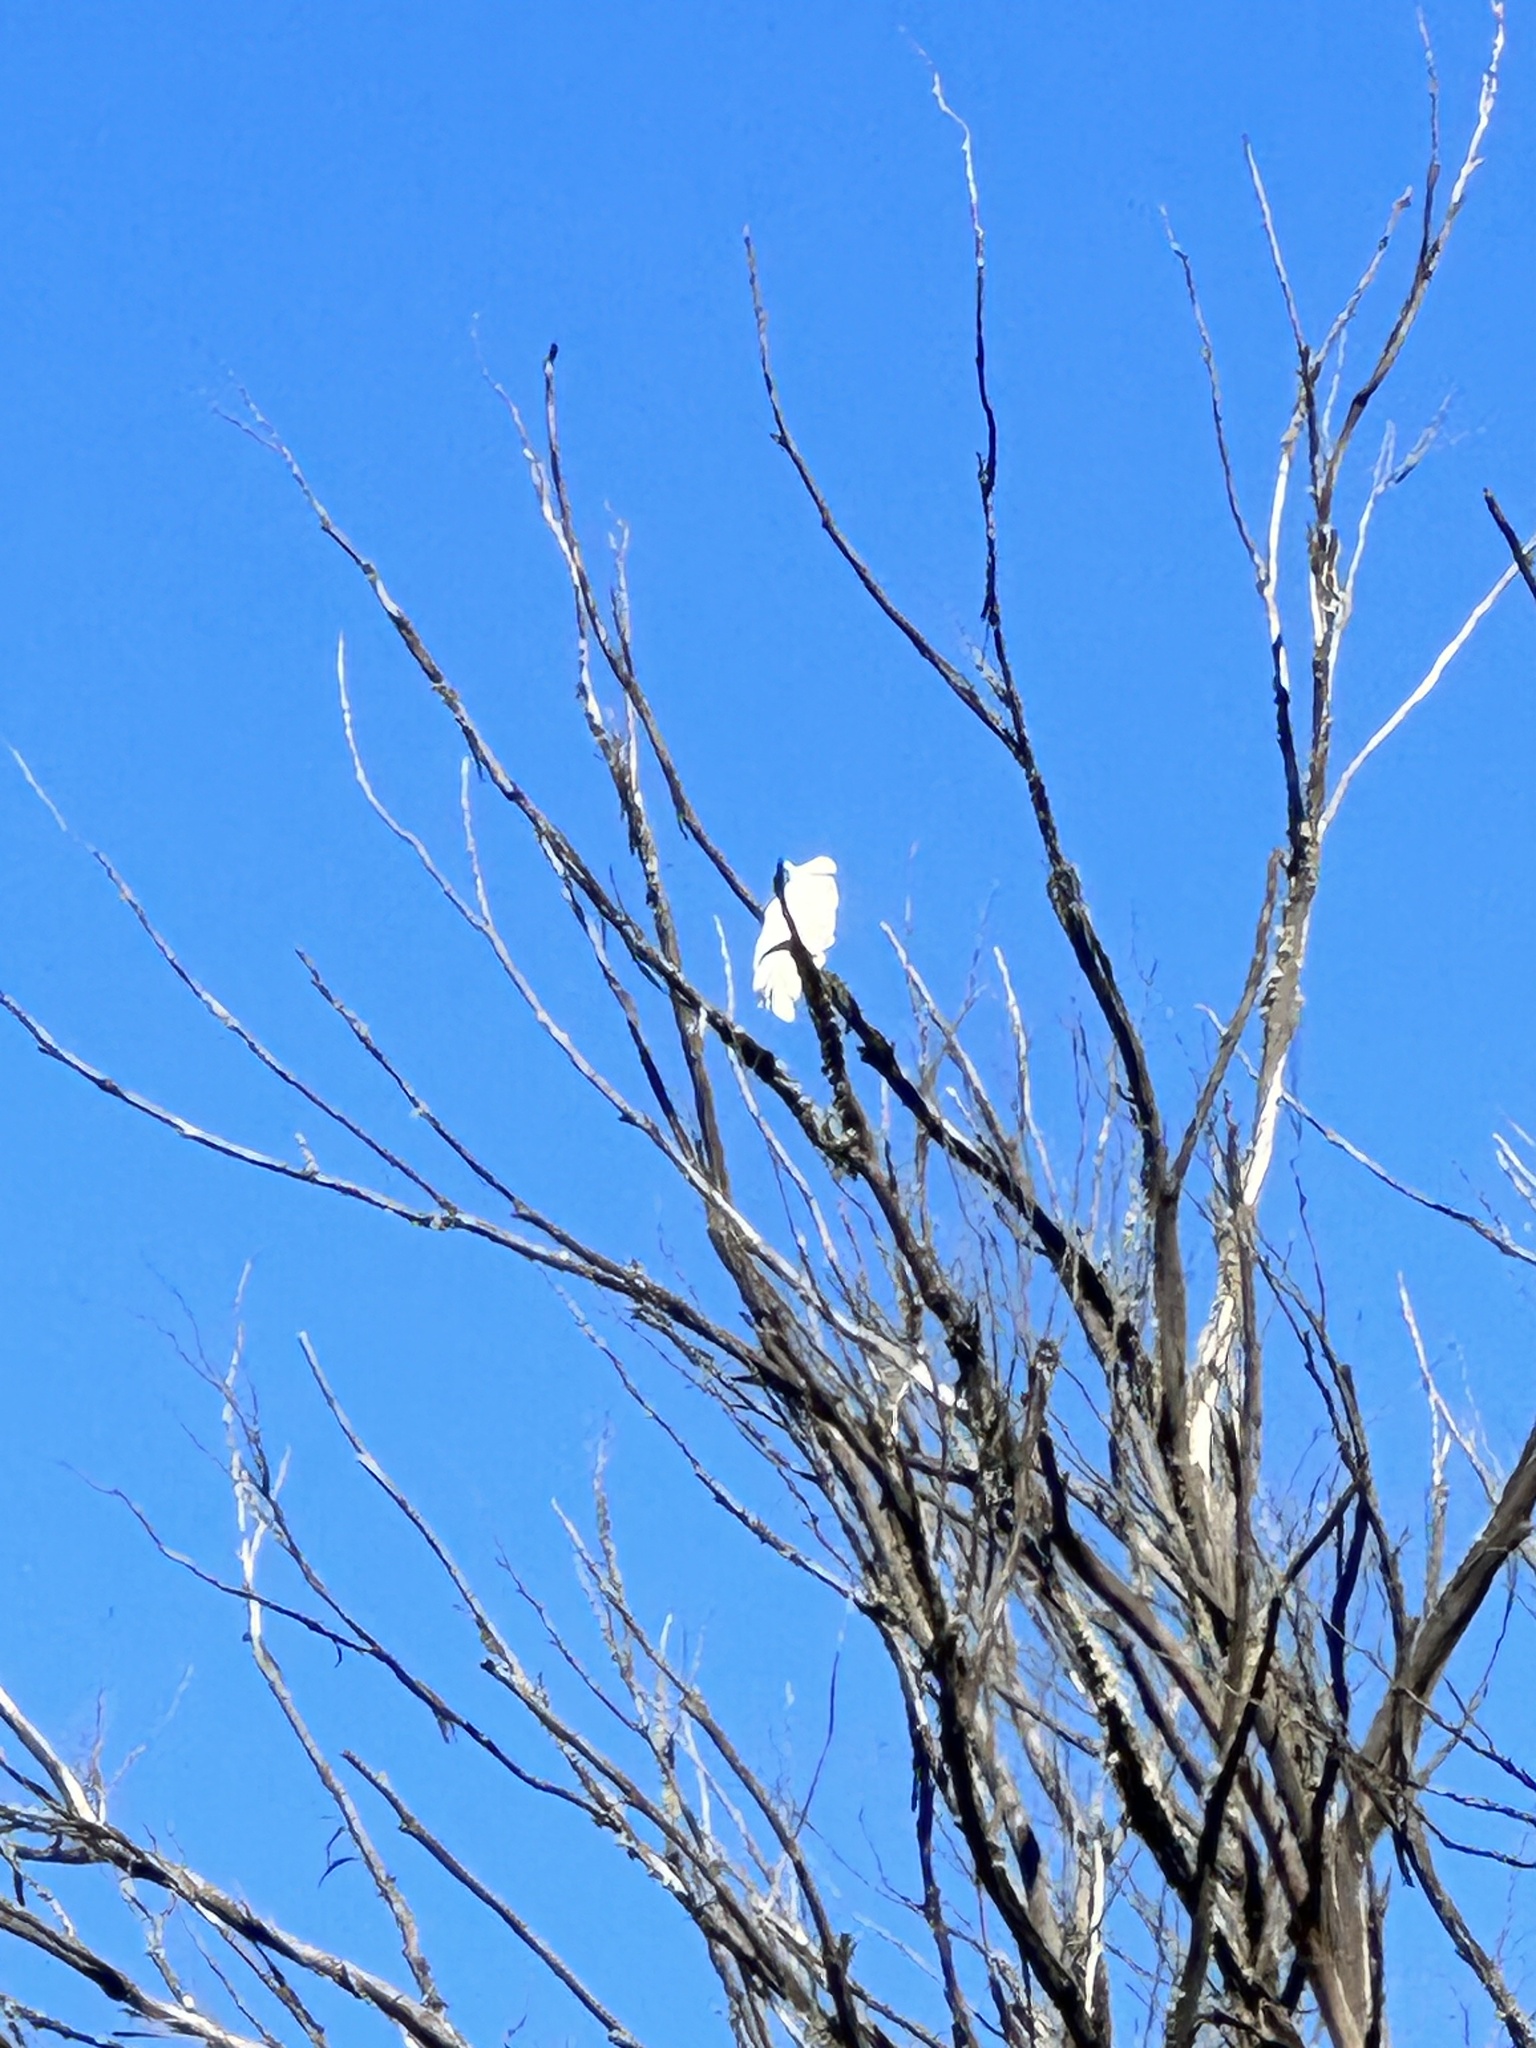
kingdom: Animalia
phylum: Chordata
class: Aves
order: Psittaciformes
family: Psittacidae
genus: Cacatua
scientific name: Cacatua galerita
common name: Sulphur-crested cockatoo
